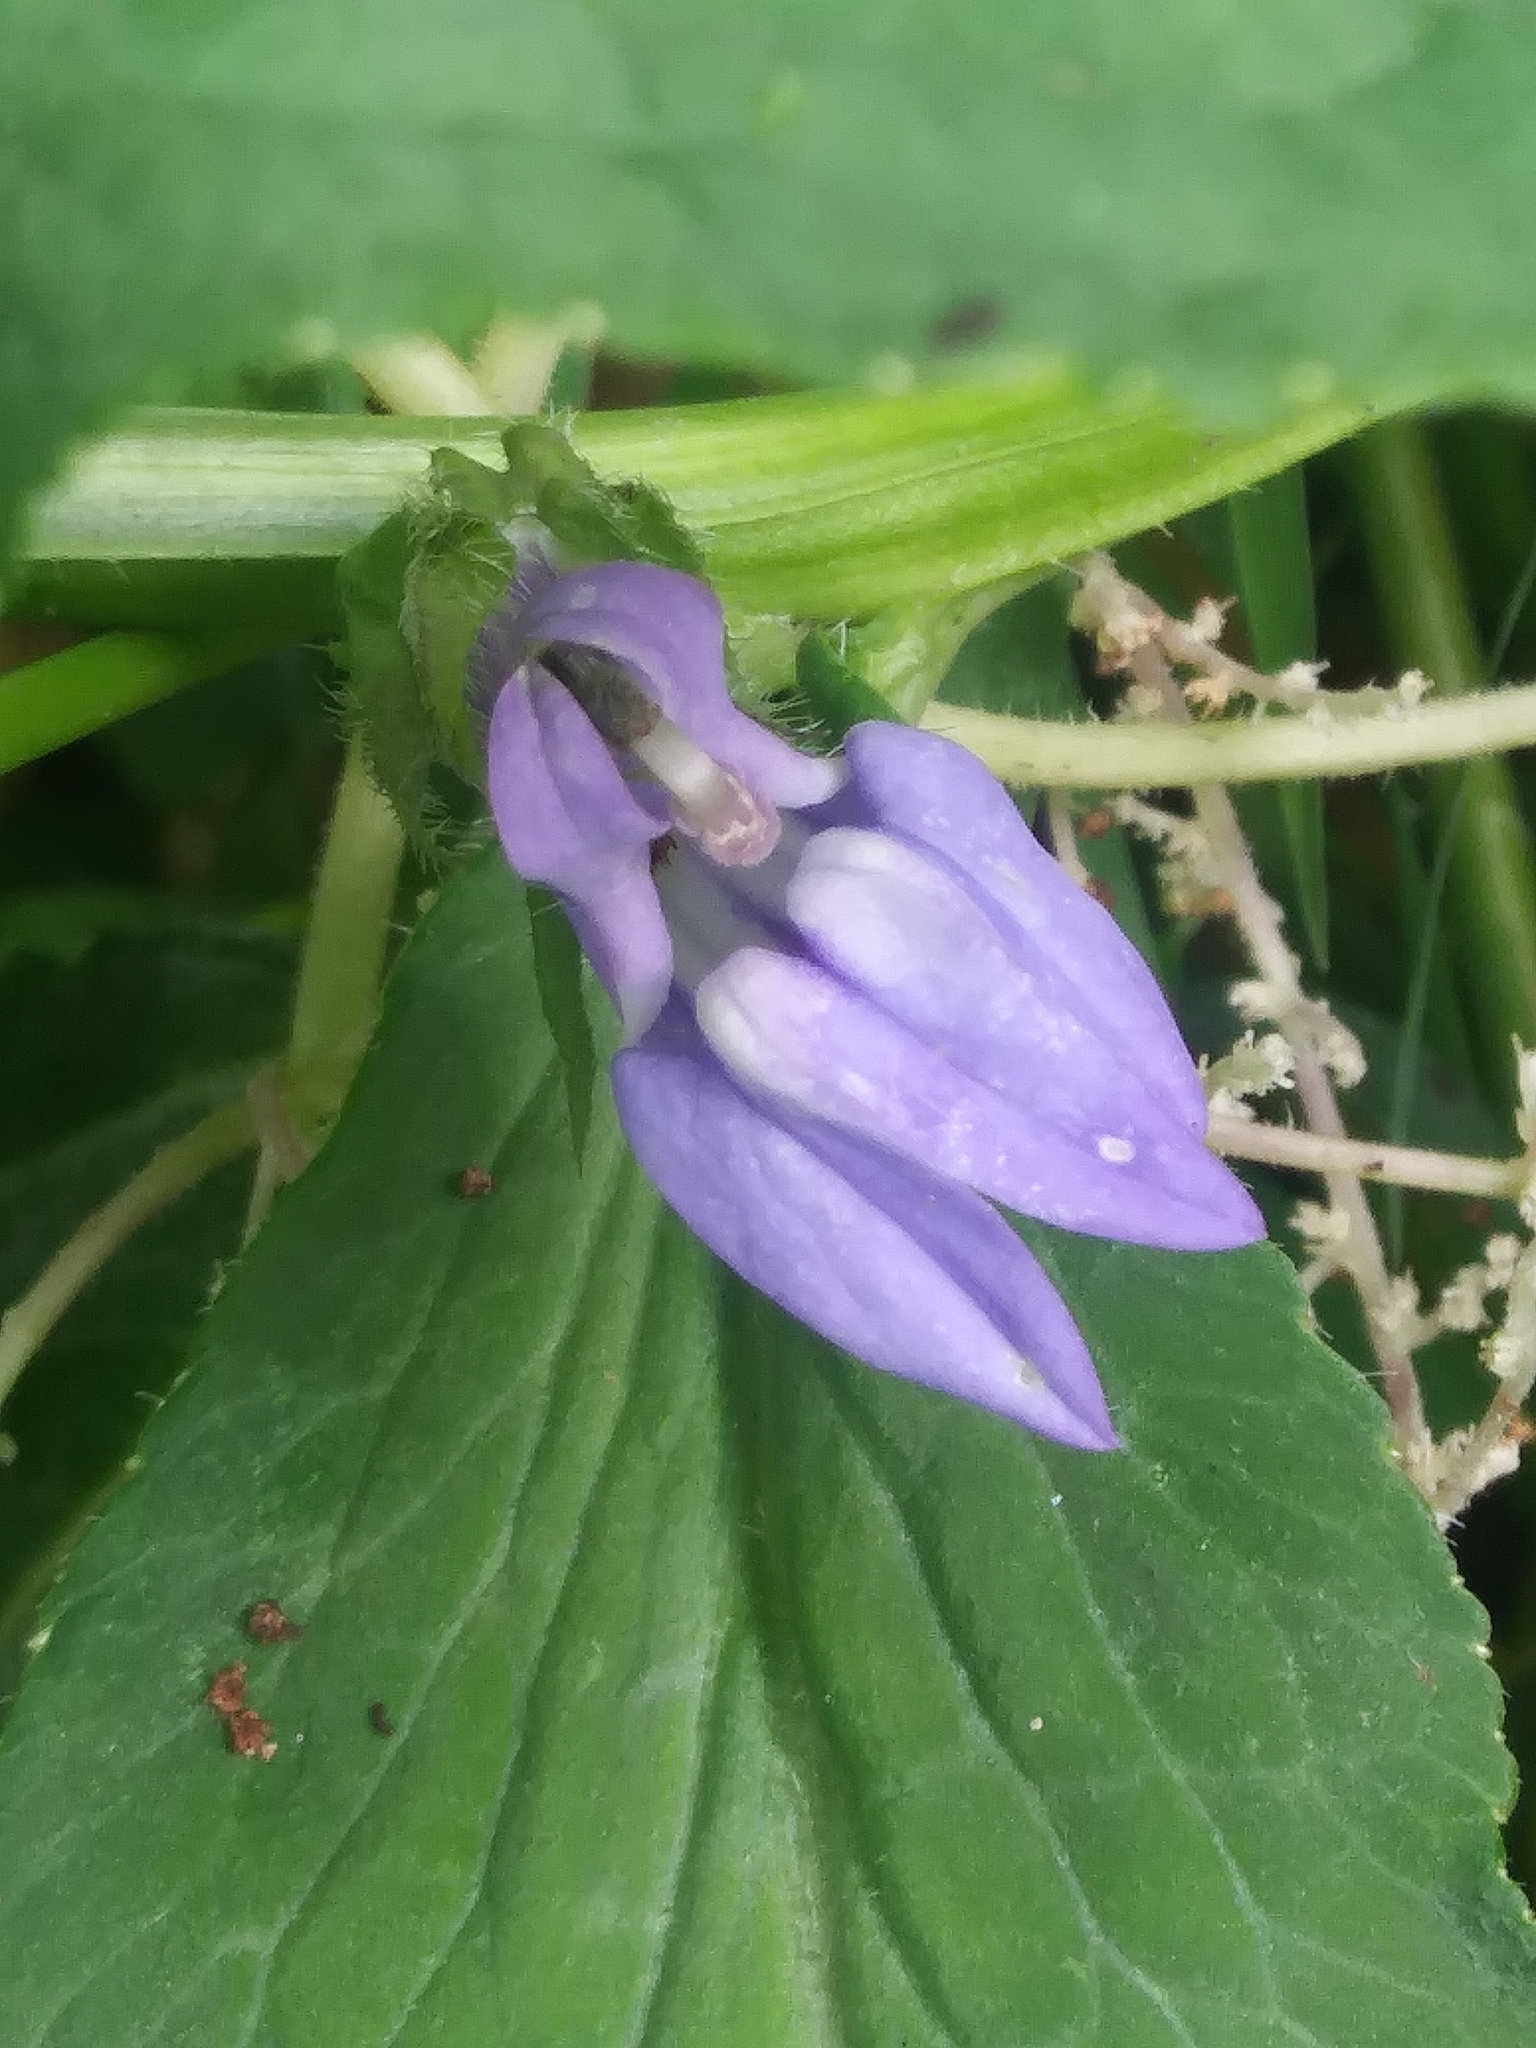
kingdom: Plantae
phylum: Tracheophyta
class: Magnoliopsida
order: Asterales
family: Campanulaceae
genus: Lobelia
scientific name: Lobelia siphilitica
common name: Great lobelia
